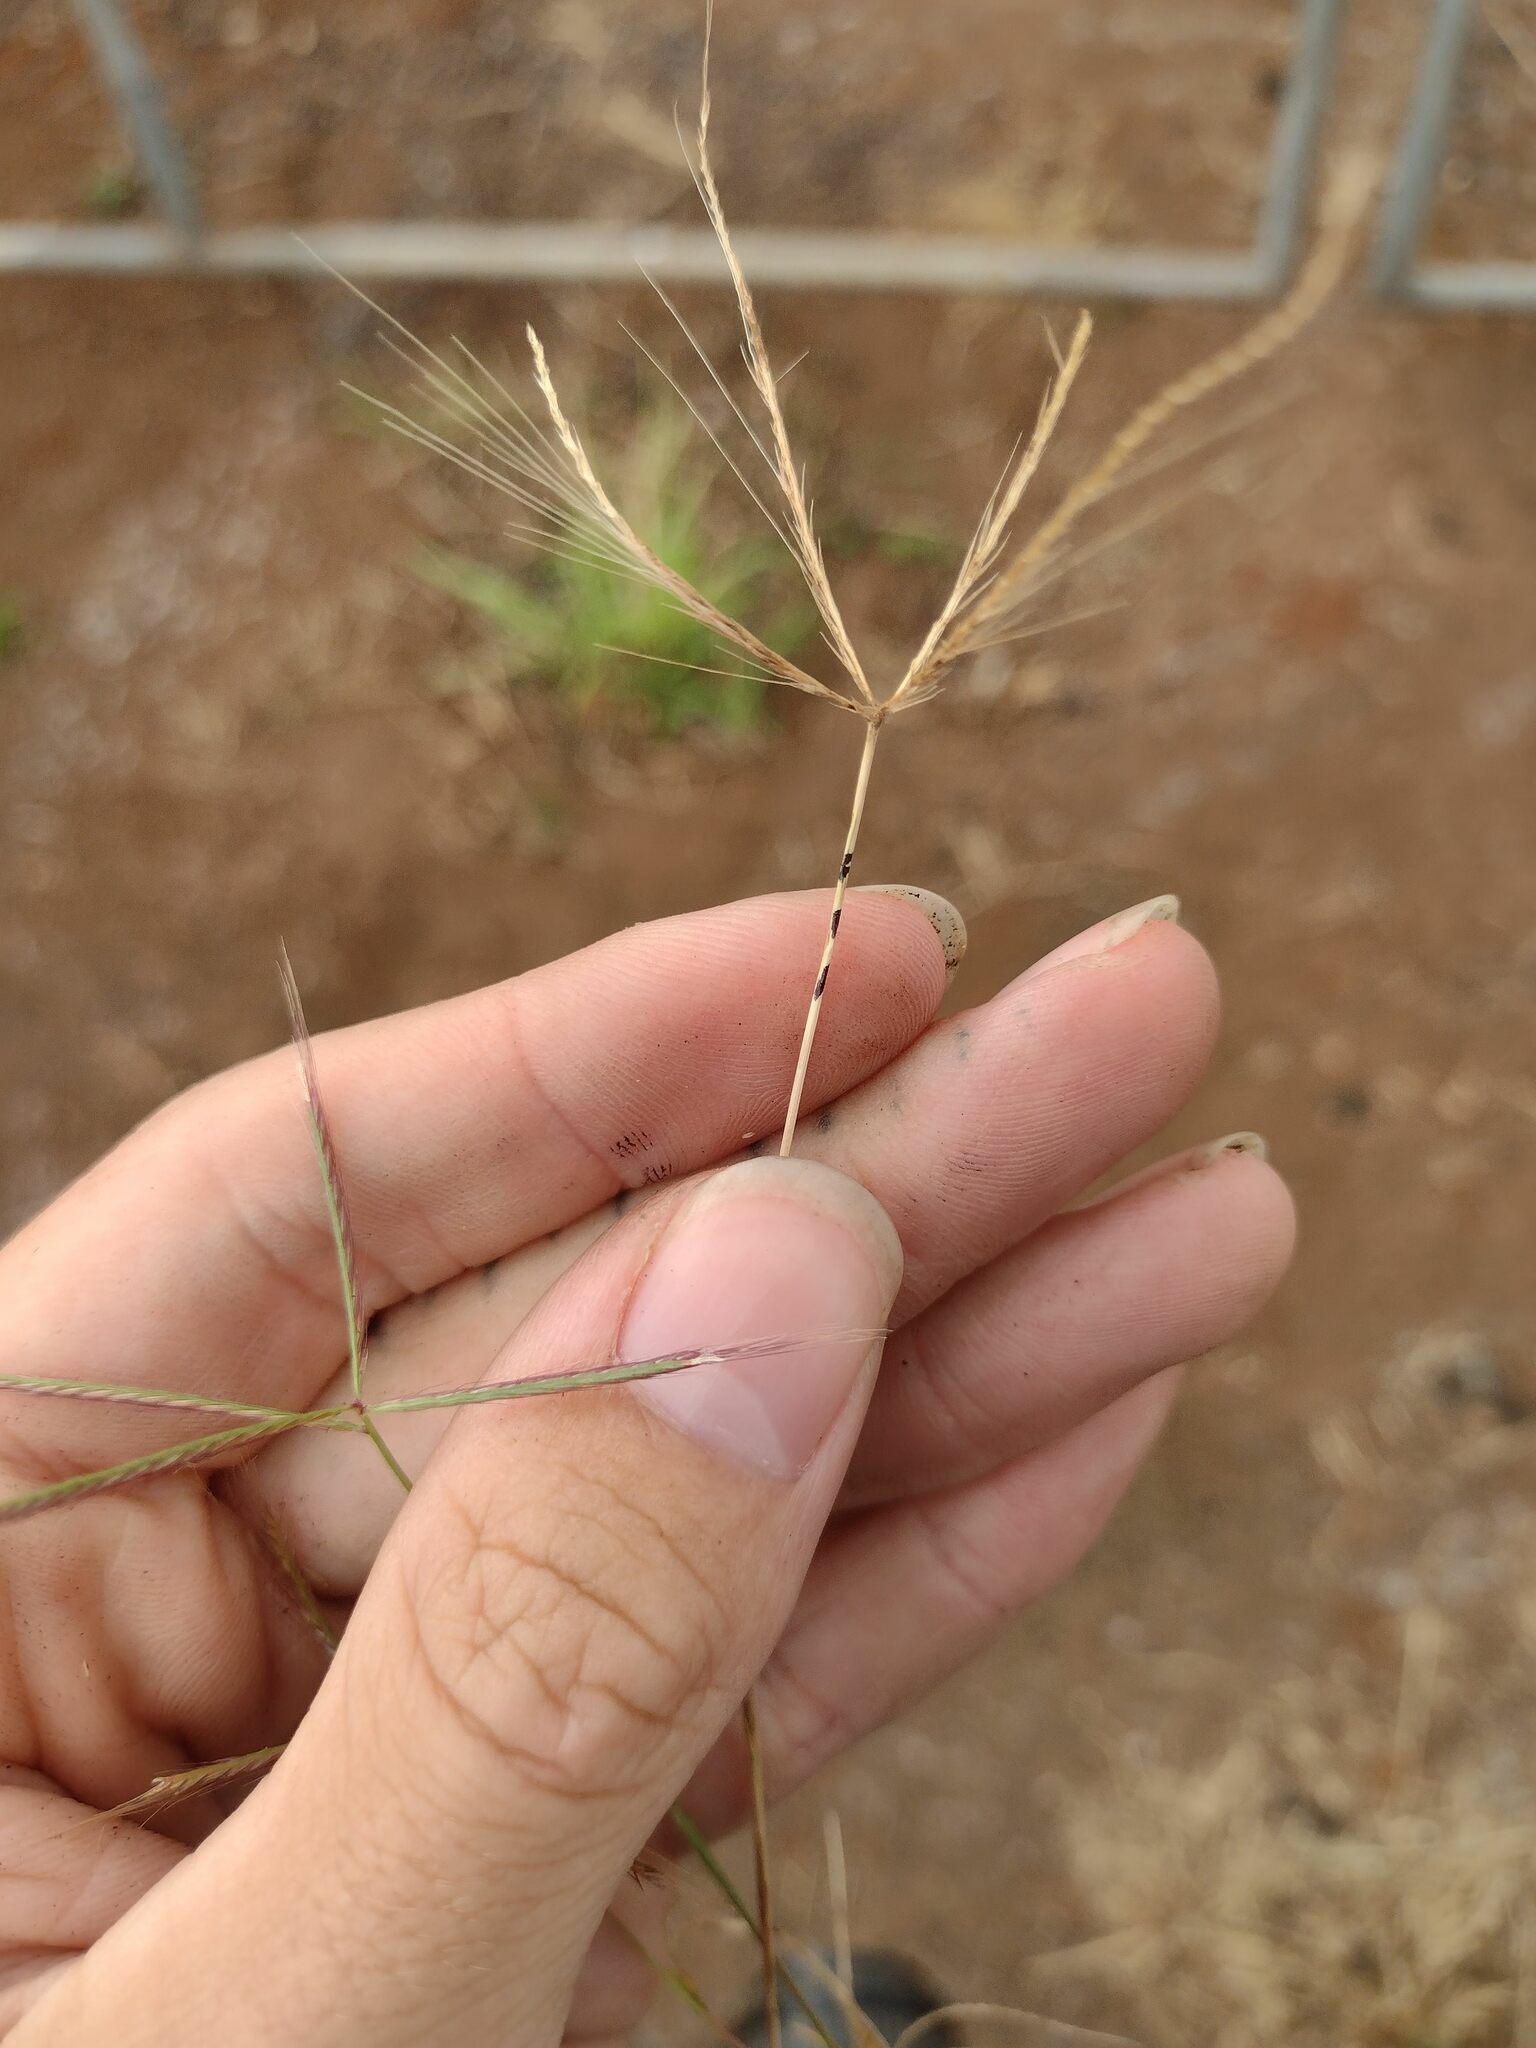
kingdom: Plantae
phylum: Tracheophyta
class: Liliopsida
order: Poales
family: Poaceae
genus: Chloris
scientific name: Chloris pycnothrix
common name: Spiderweb chloris
